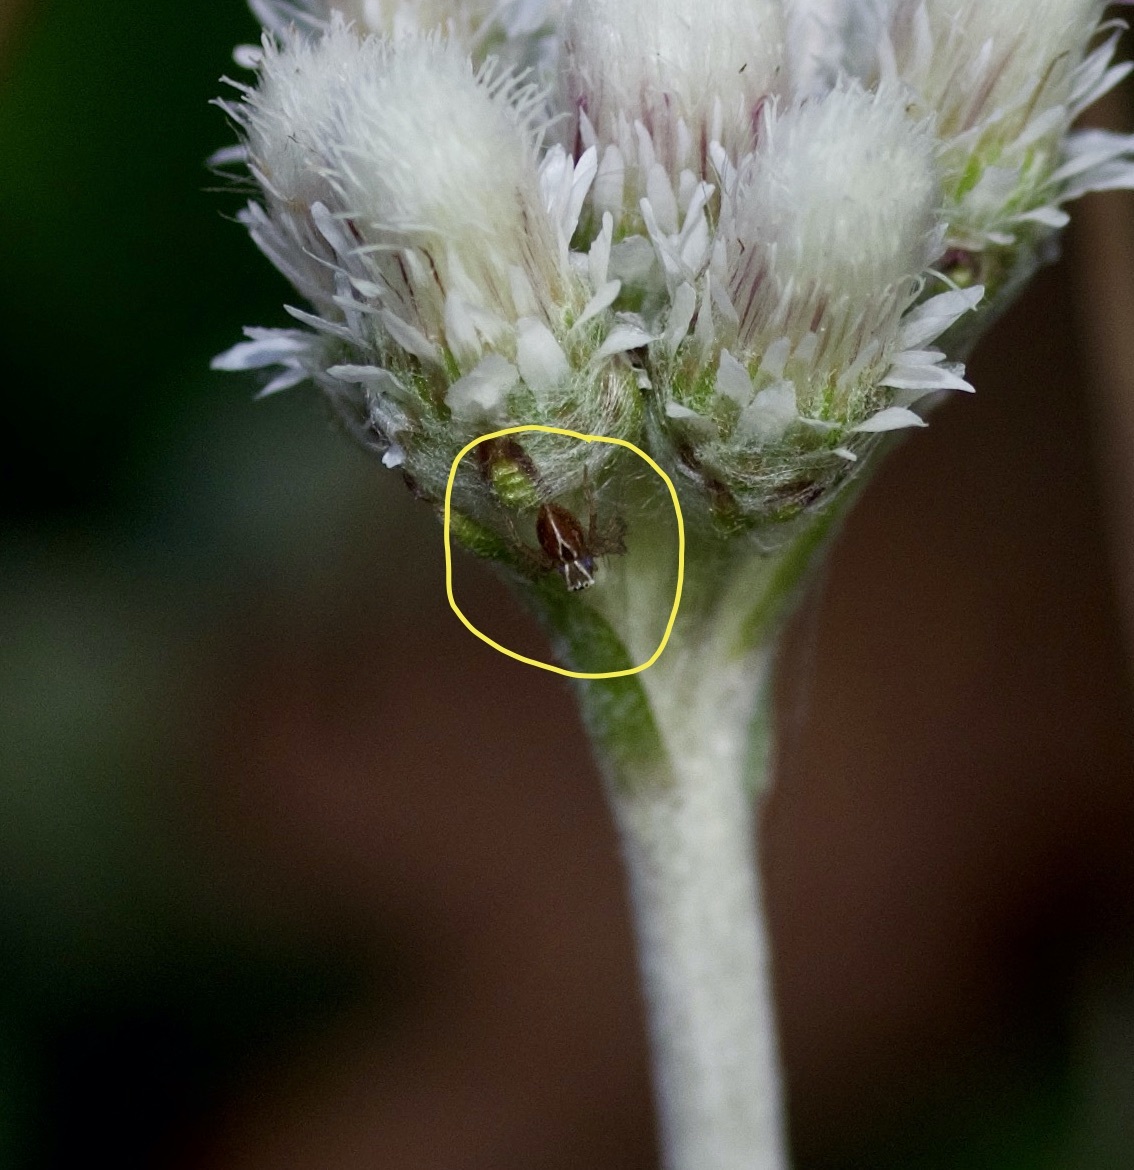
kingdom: Animalia
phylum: Arthropoda
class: Arachnida
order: Araneae
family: Oxyopidae
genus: Oxyopes
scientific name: Oxyopes salticus
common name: Lynx spiders
